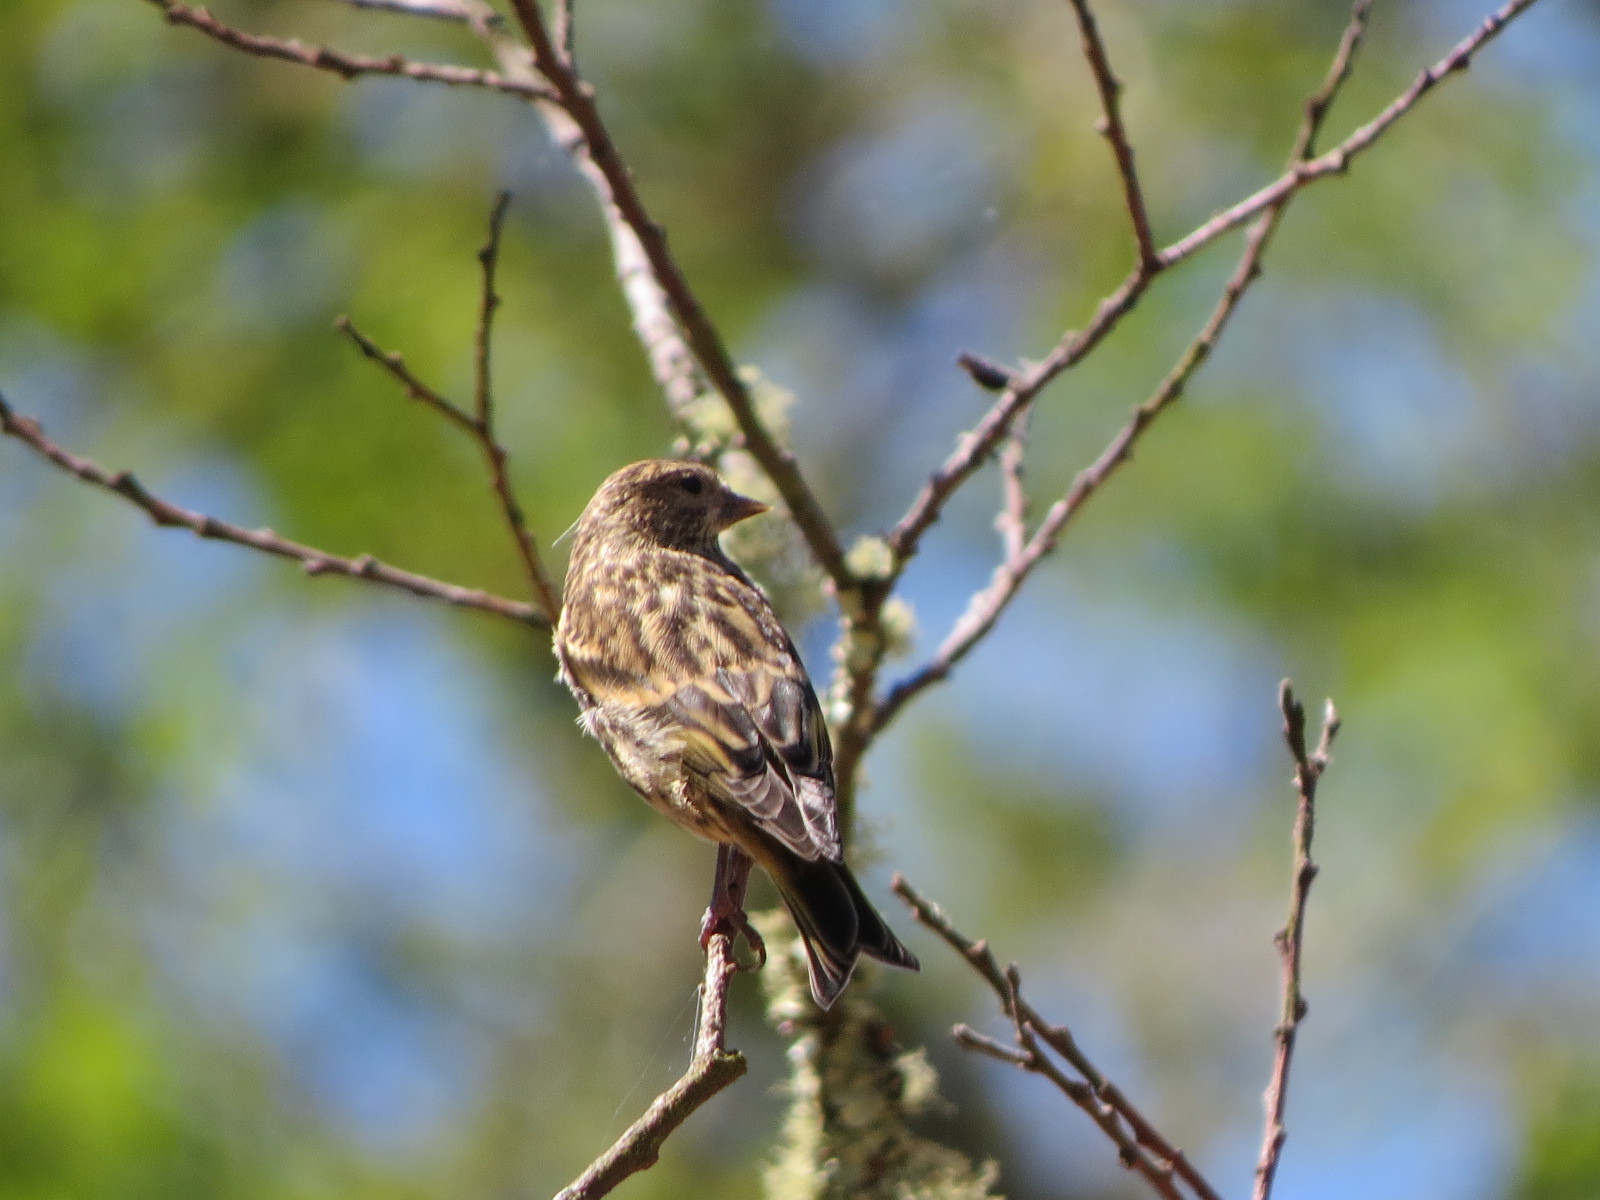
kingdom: Animalia
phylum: Chordata
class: Aves
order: Passeriformes
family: Fringillidae
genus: Spinus
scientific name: Spinus pinus
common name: Pine siskin
